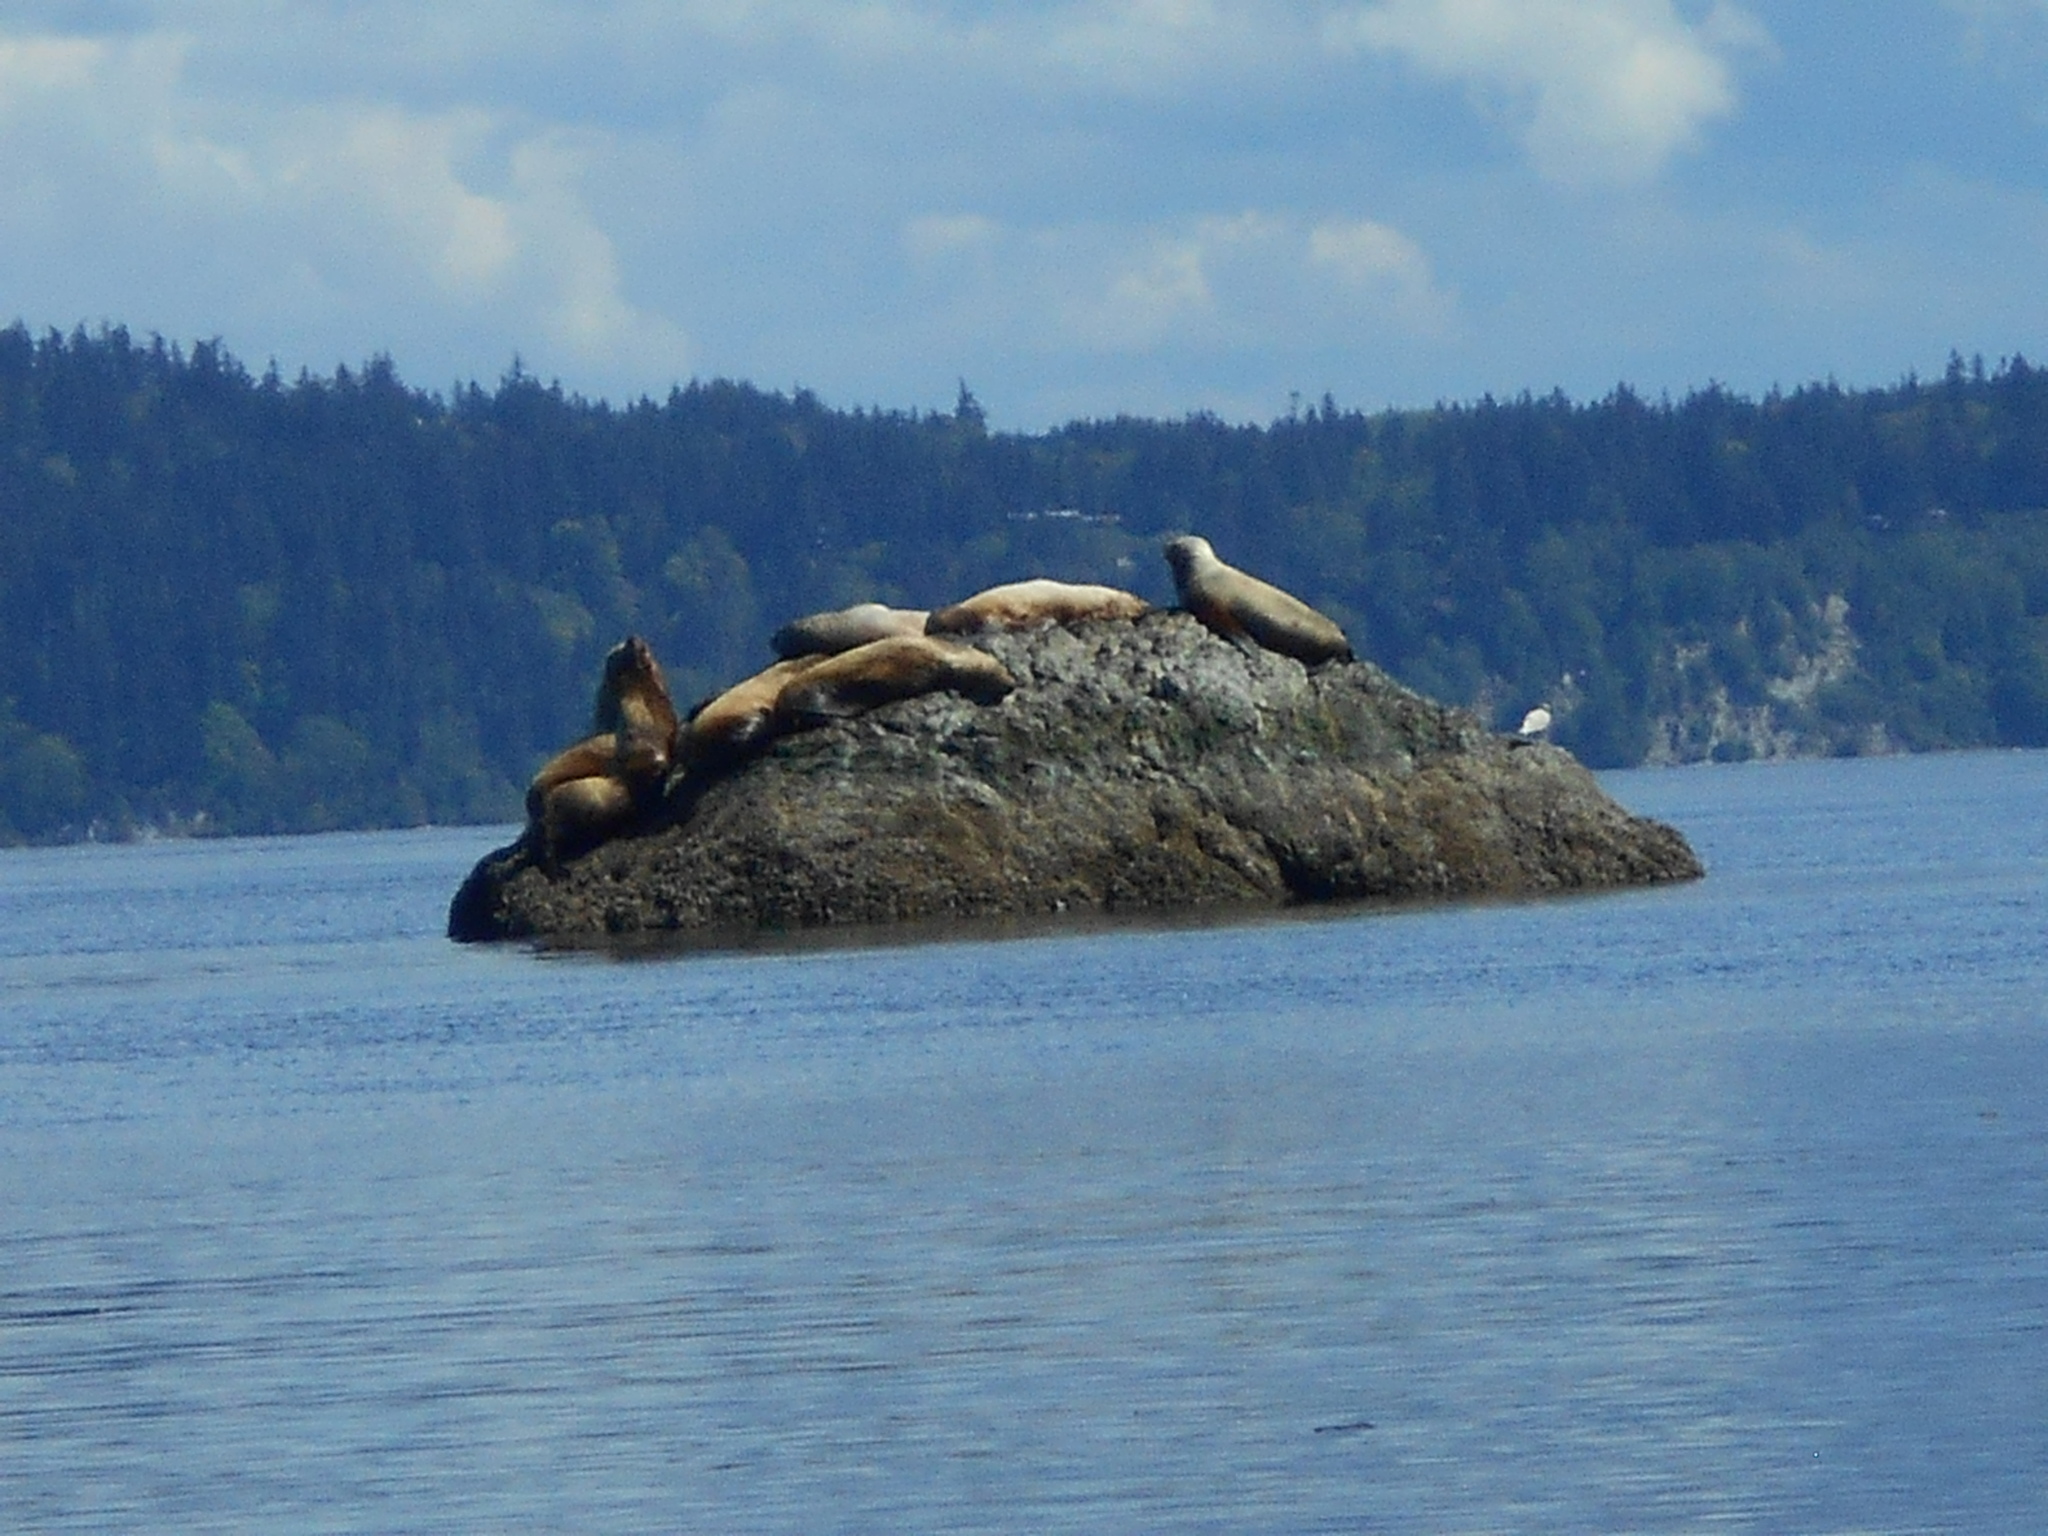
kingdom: Animalia
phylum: Chordata
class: Mammalia
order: Carnivora
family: Otariidae
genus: Eumetopias
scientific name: Eumetopias jubatus
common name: Steller sea lion
